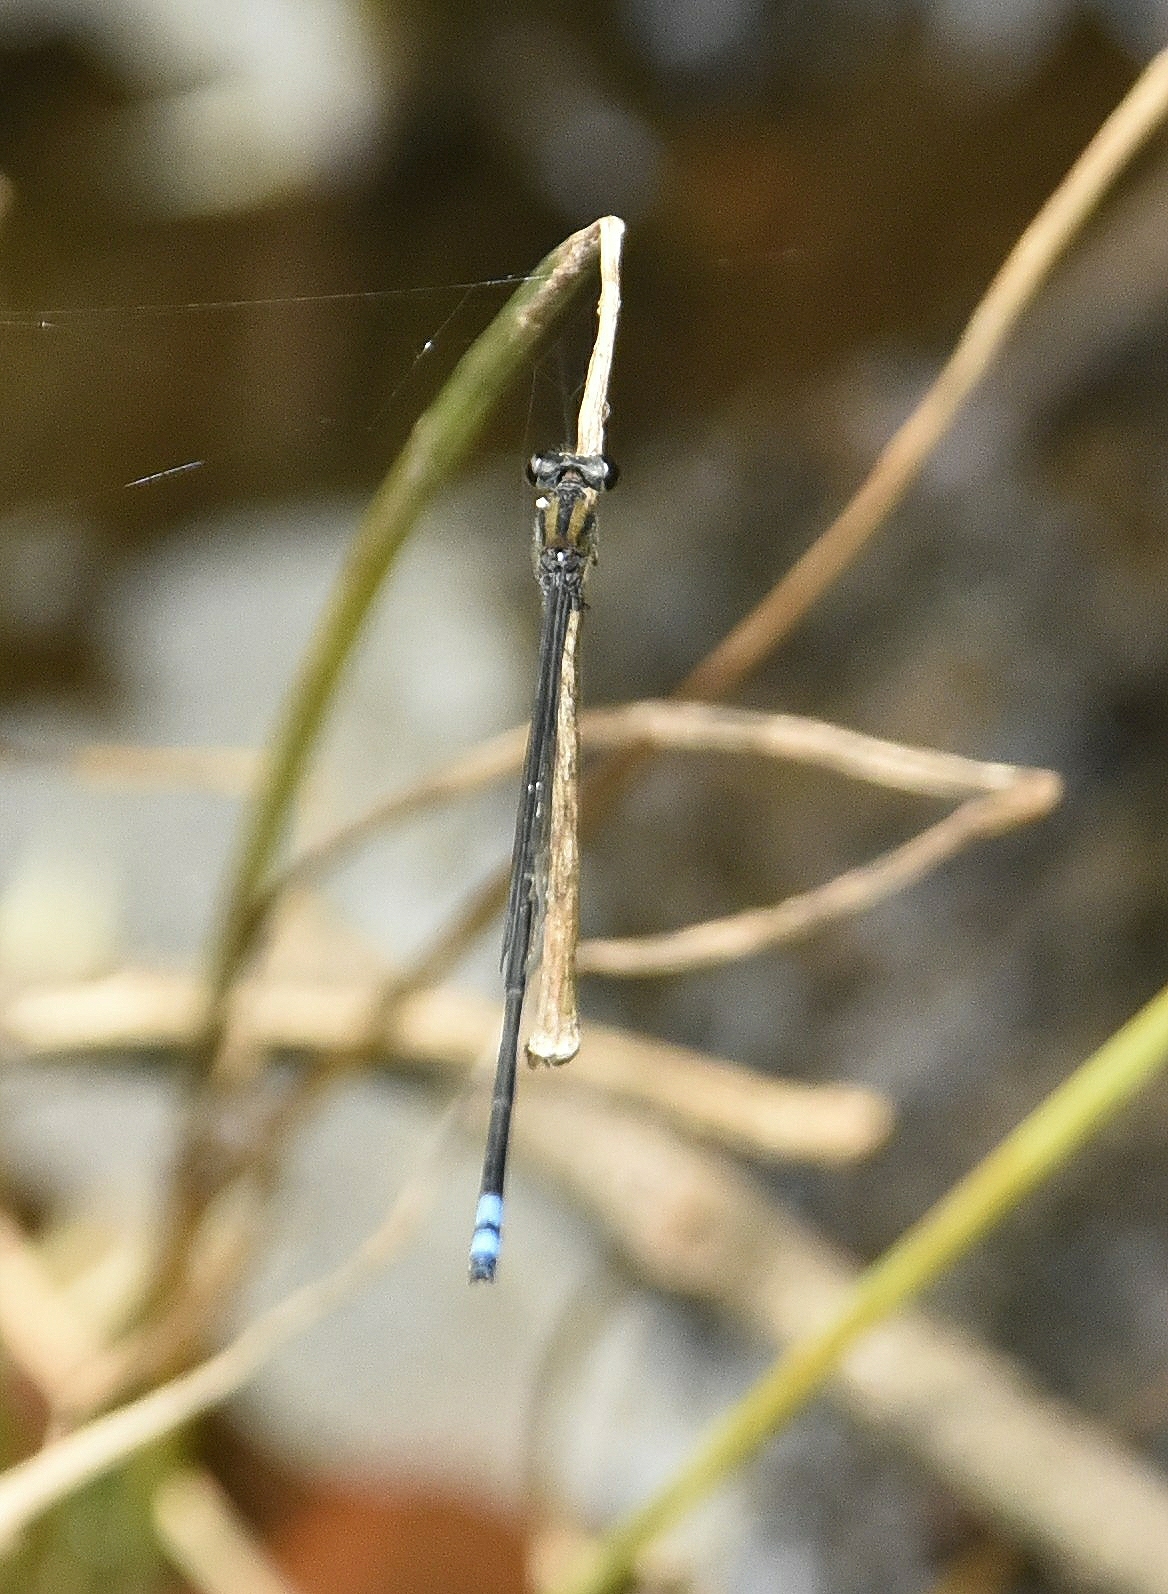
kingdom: Animalia
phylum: Arthropoda
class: Insecta
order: Odonata
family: Coenagrionidae
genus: Pseudagrion
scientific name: Pseudagrion indicum
